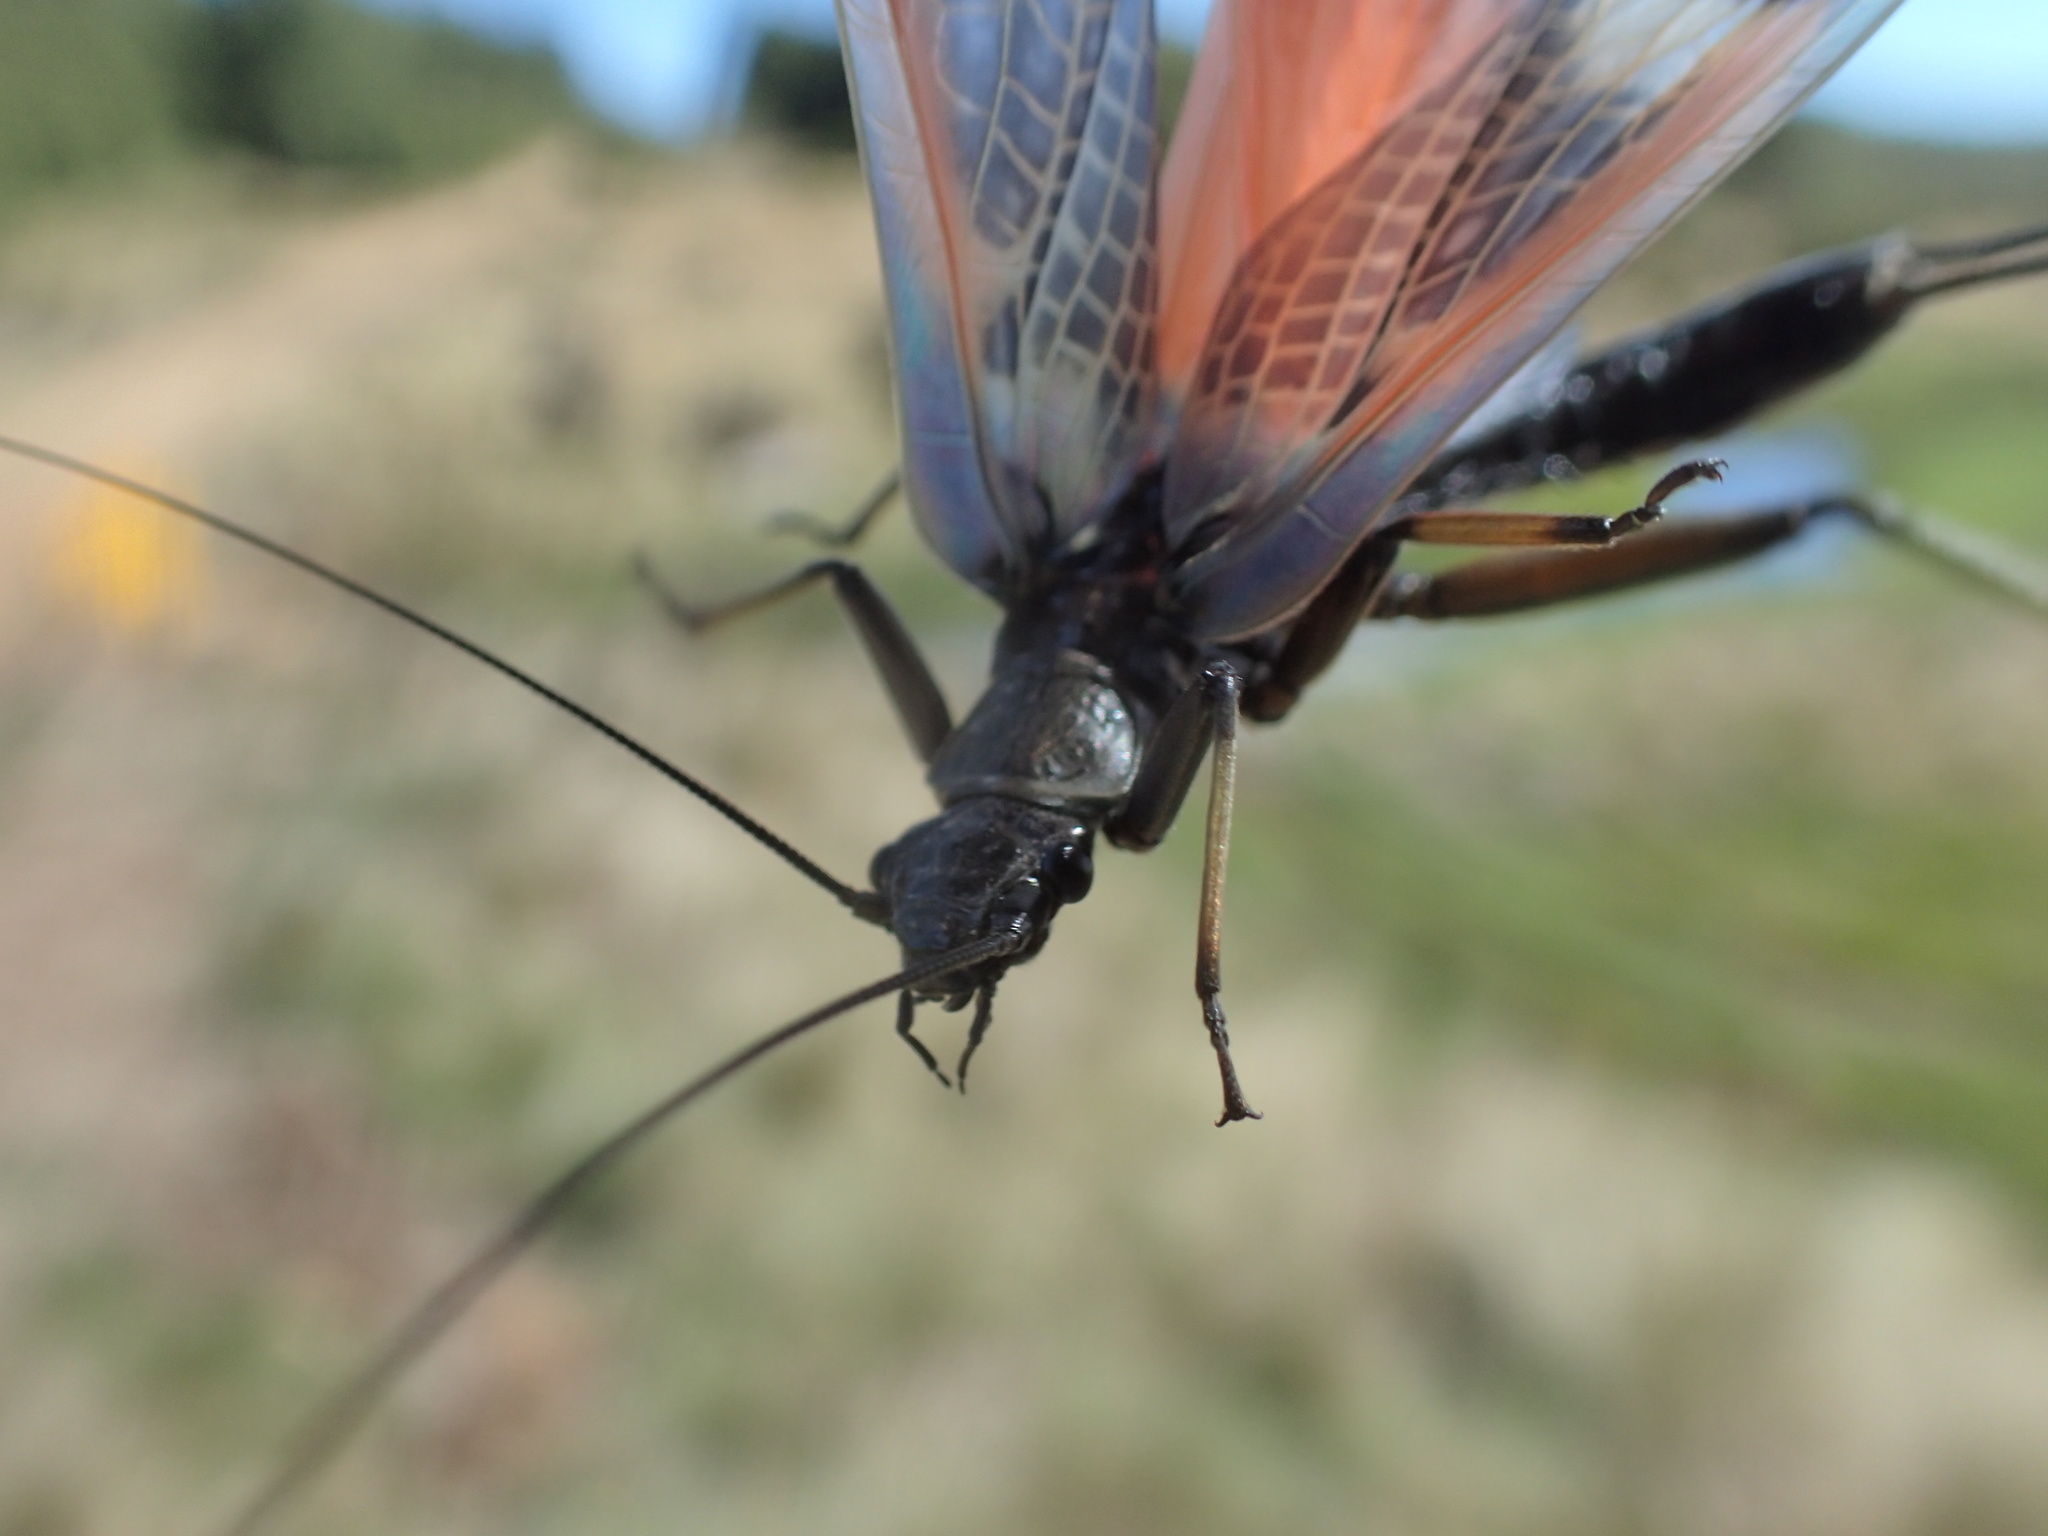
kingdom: Animalia
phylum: Arthropoda
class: Insecta
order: Plecoptera
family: Eustheniidae
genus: Eusthenia
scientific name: Eusthenia spectabilis
